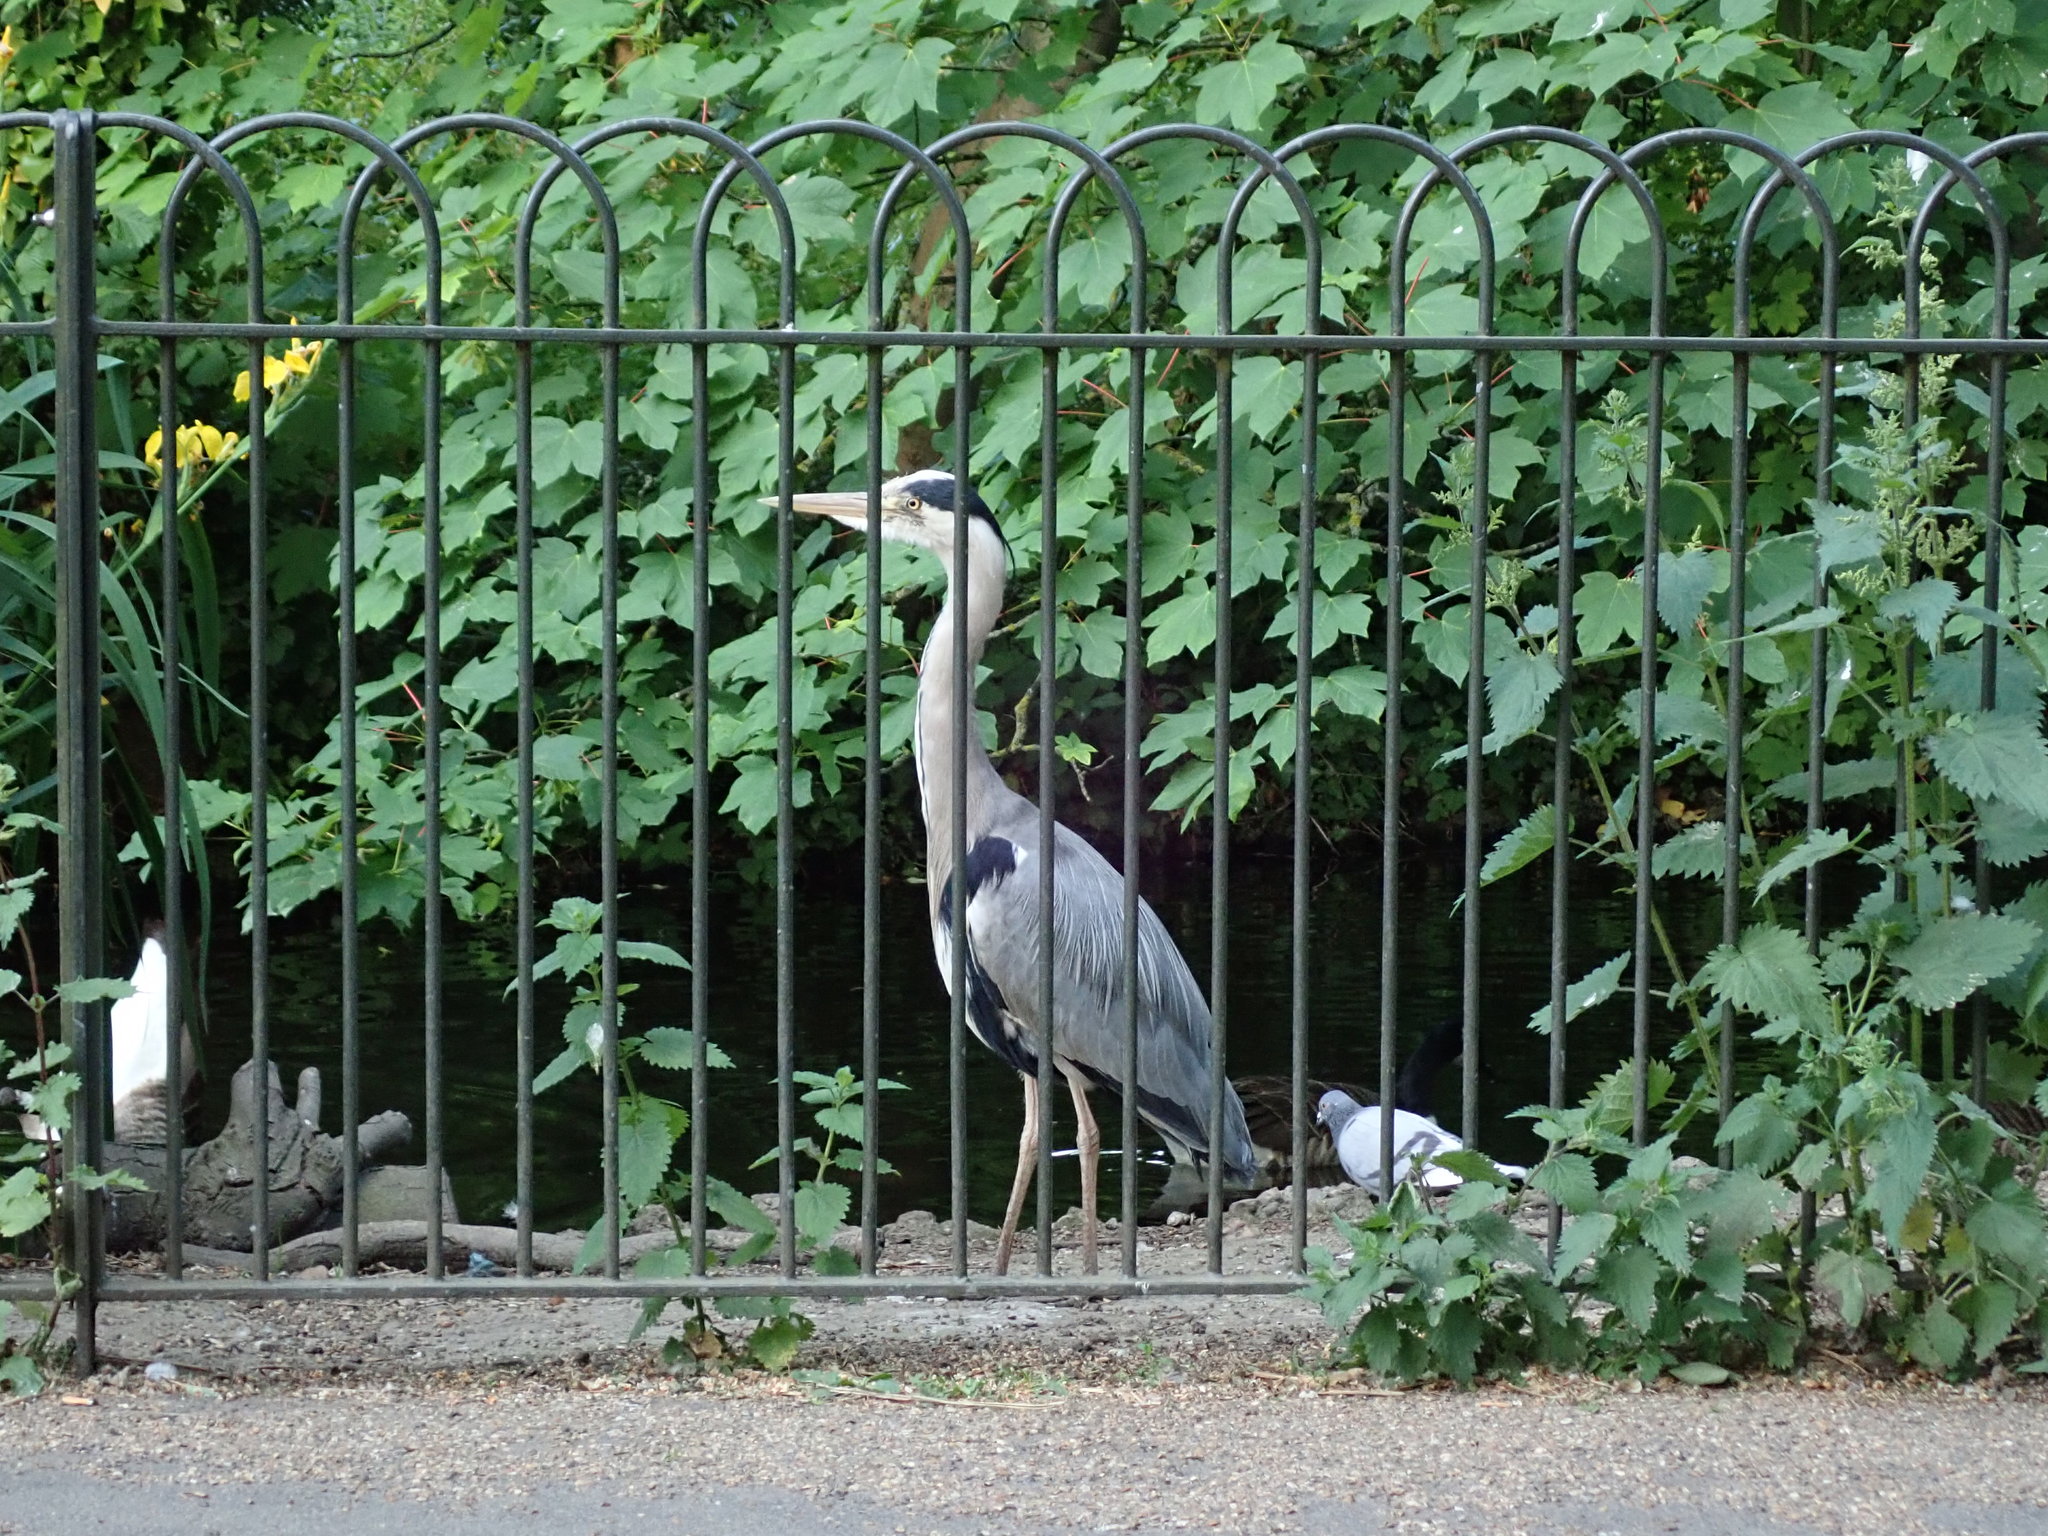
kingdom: Animalia
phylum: Chordata
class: Aves
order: Pelecaniformes
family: Ardeidae
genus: Ardea
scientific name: Ardea cinerea
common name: Grey heron
